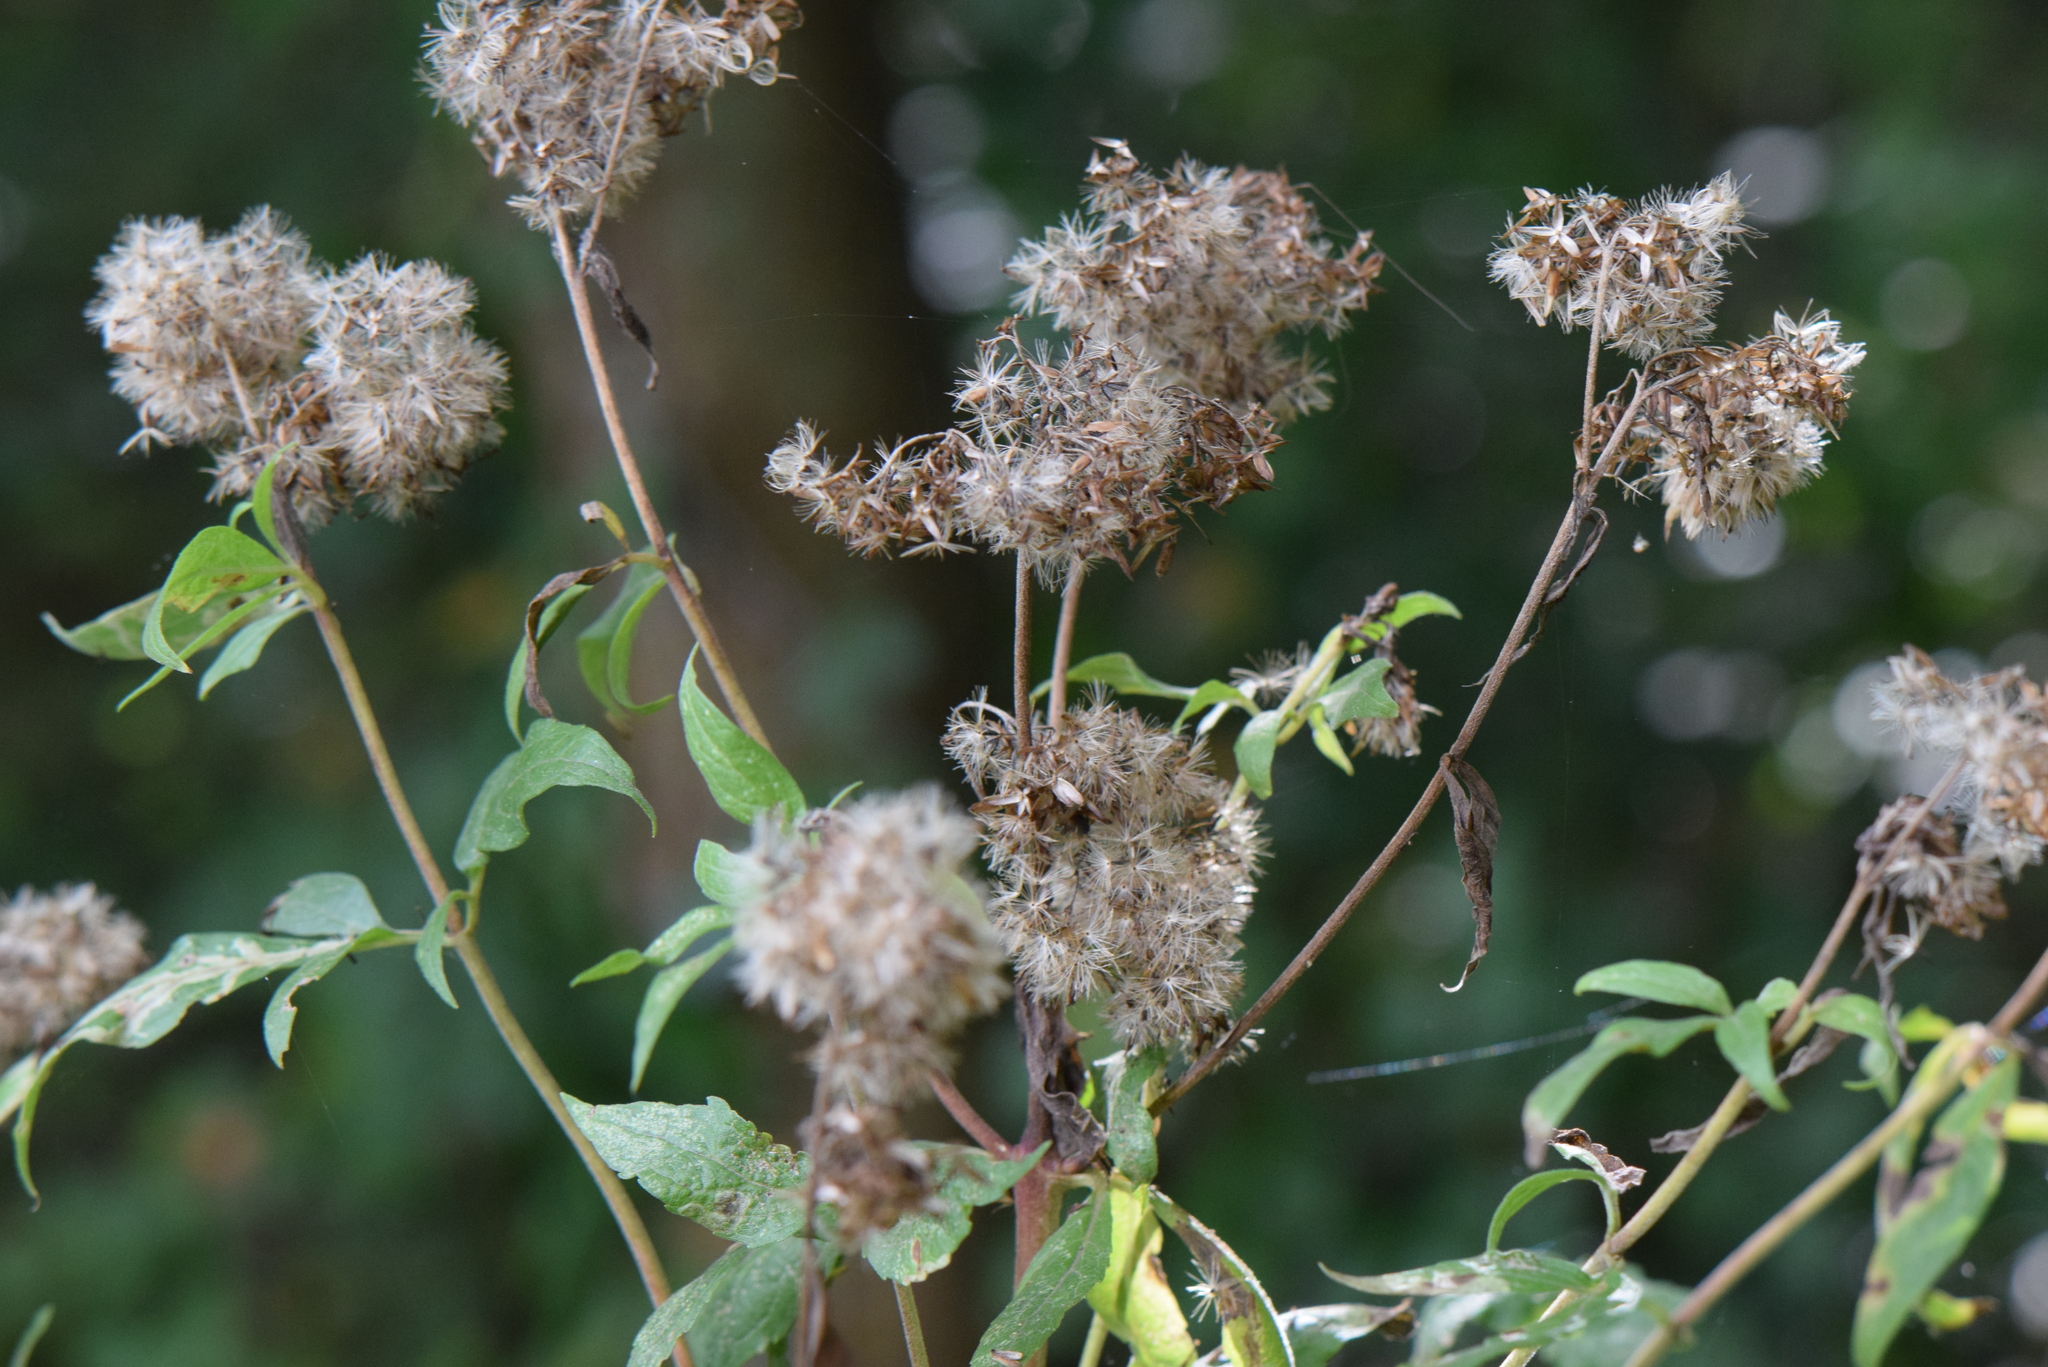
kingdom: Plantae
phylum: Tracheophyta
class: Magnoliopsida
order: Asterales
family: Asteraceae
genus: Eupatorium
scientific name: Eupatorium cannabinum
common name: Hemp-agrimony
